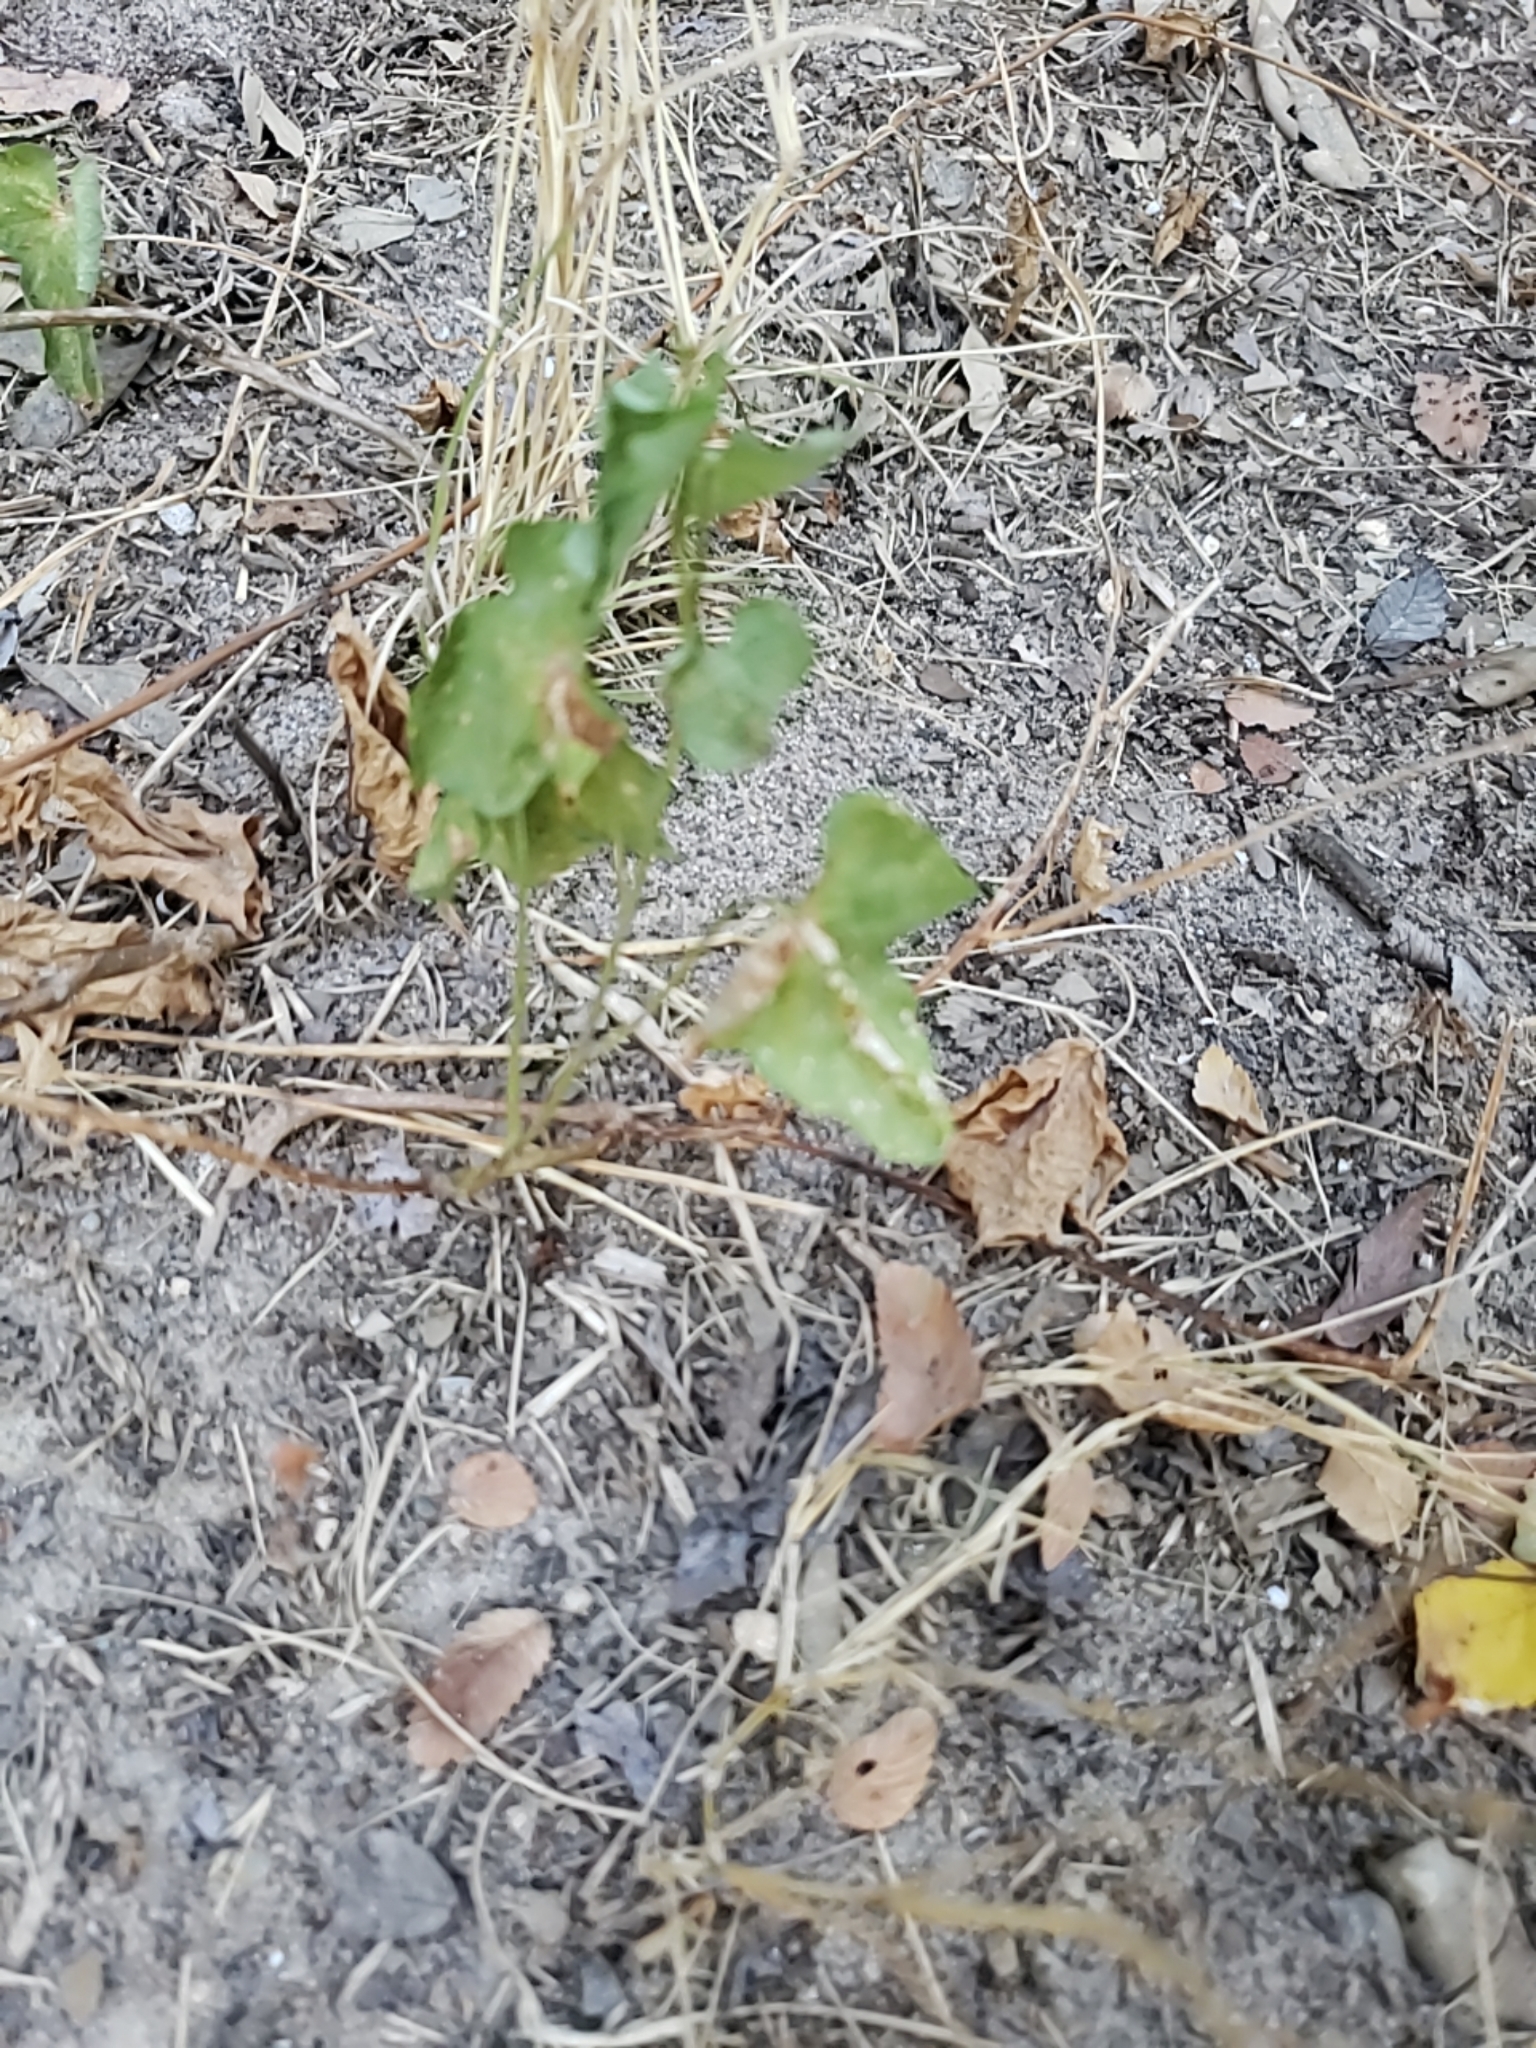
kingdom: Plantae
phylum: Tracheophyta
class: Liliopsida
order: Liliales
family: Smilacaceae
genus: Smilax
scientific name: Smilax bona-nox
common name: Catbrier
